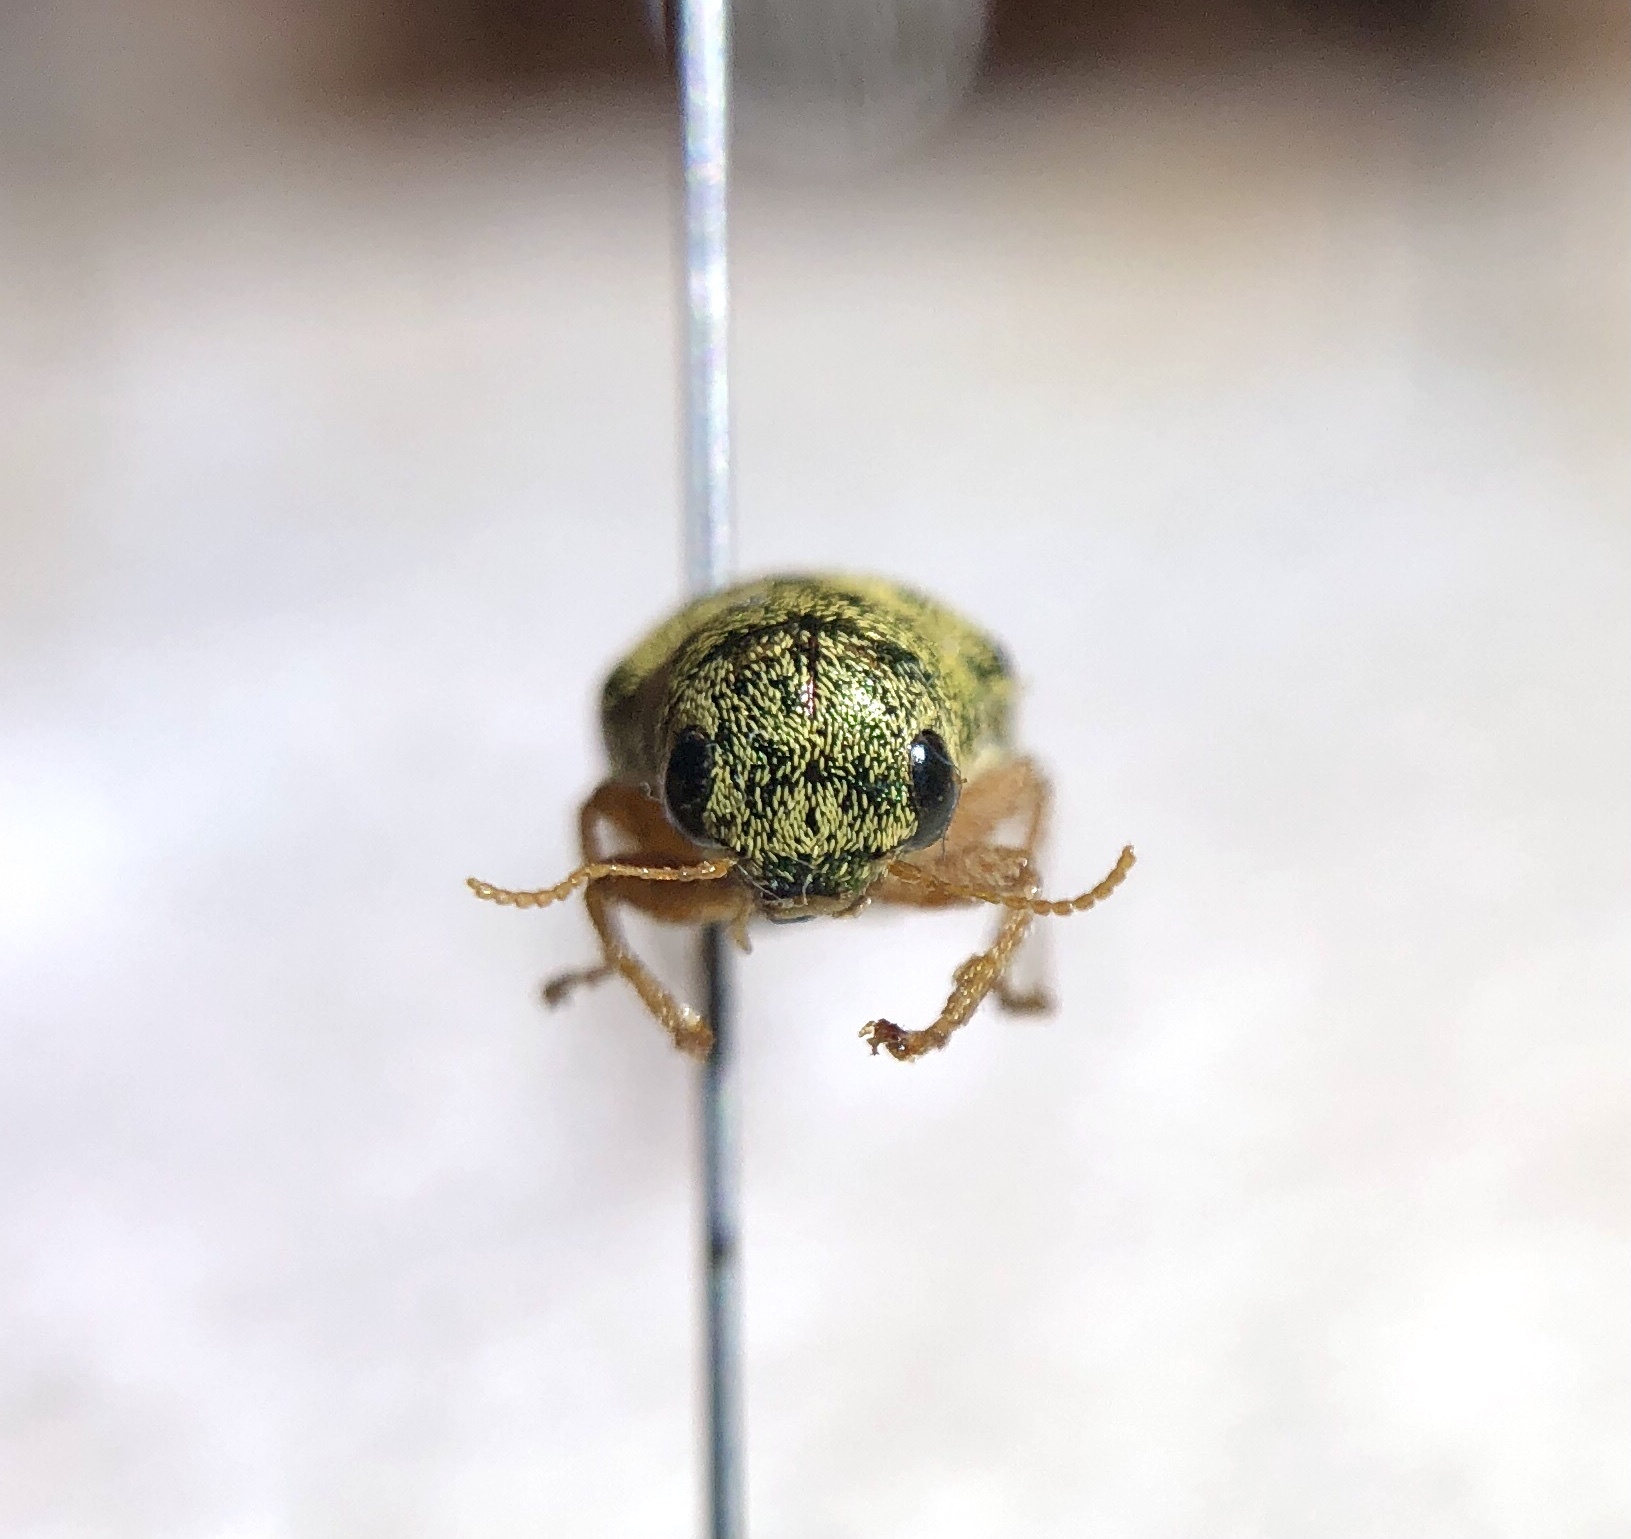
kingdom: Animalia
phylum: Arthropoda
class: Insecta
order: Coleoptera
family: Schizopodidae
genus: Glyptoscelimorpha
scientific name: Glyptoscelimorpha viridis
